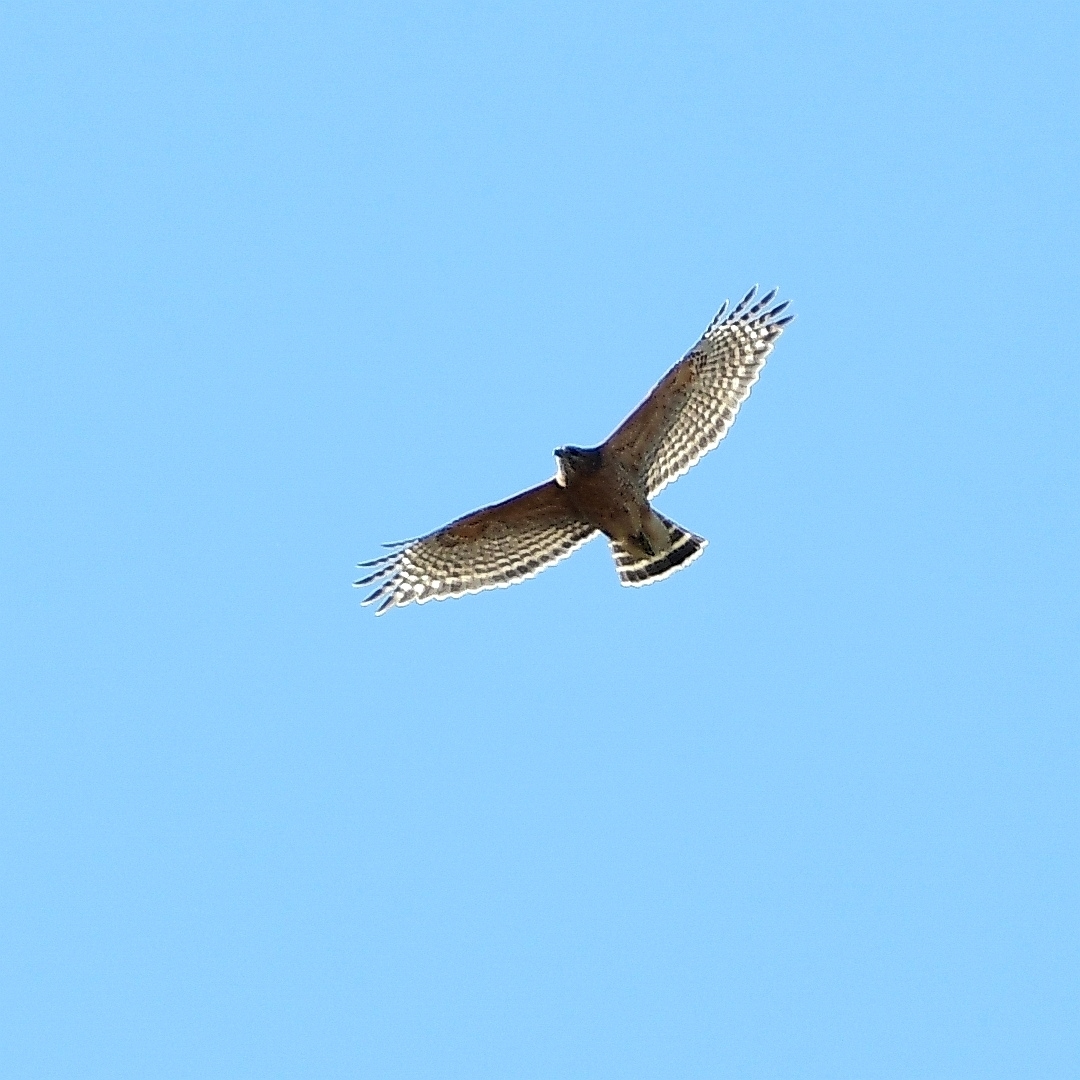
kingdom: Animalia
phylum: Chordata
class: Aves
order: Accipitriformes
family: Accipitridae
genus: Buteo
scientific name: Buteo lineatus
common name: Red-shouldered hawk
